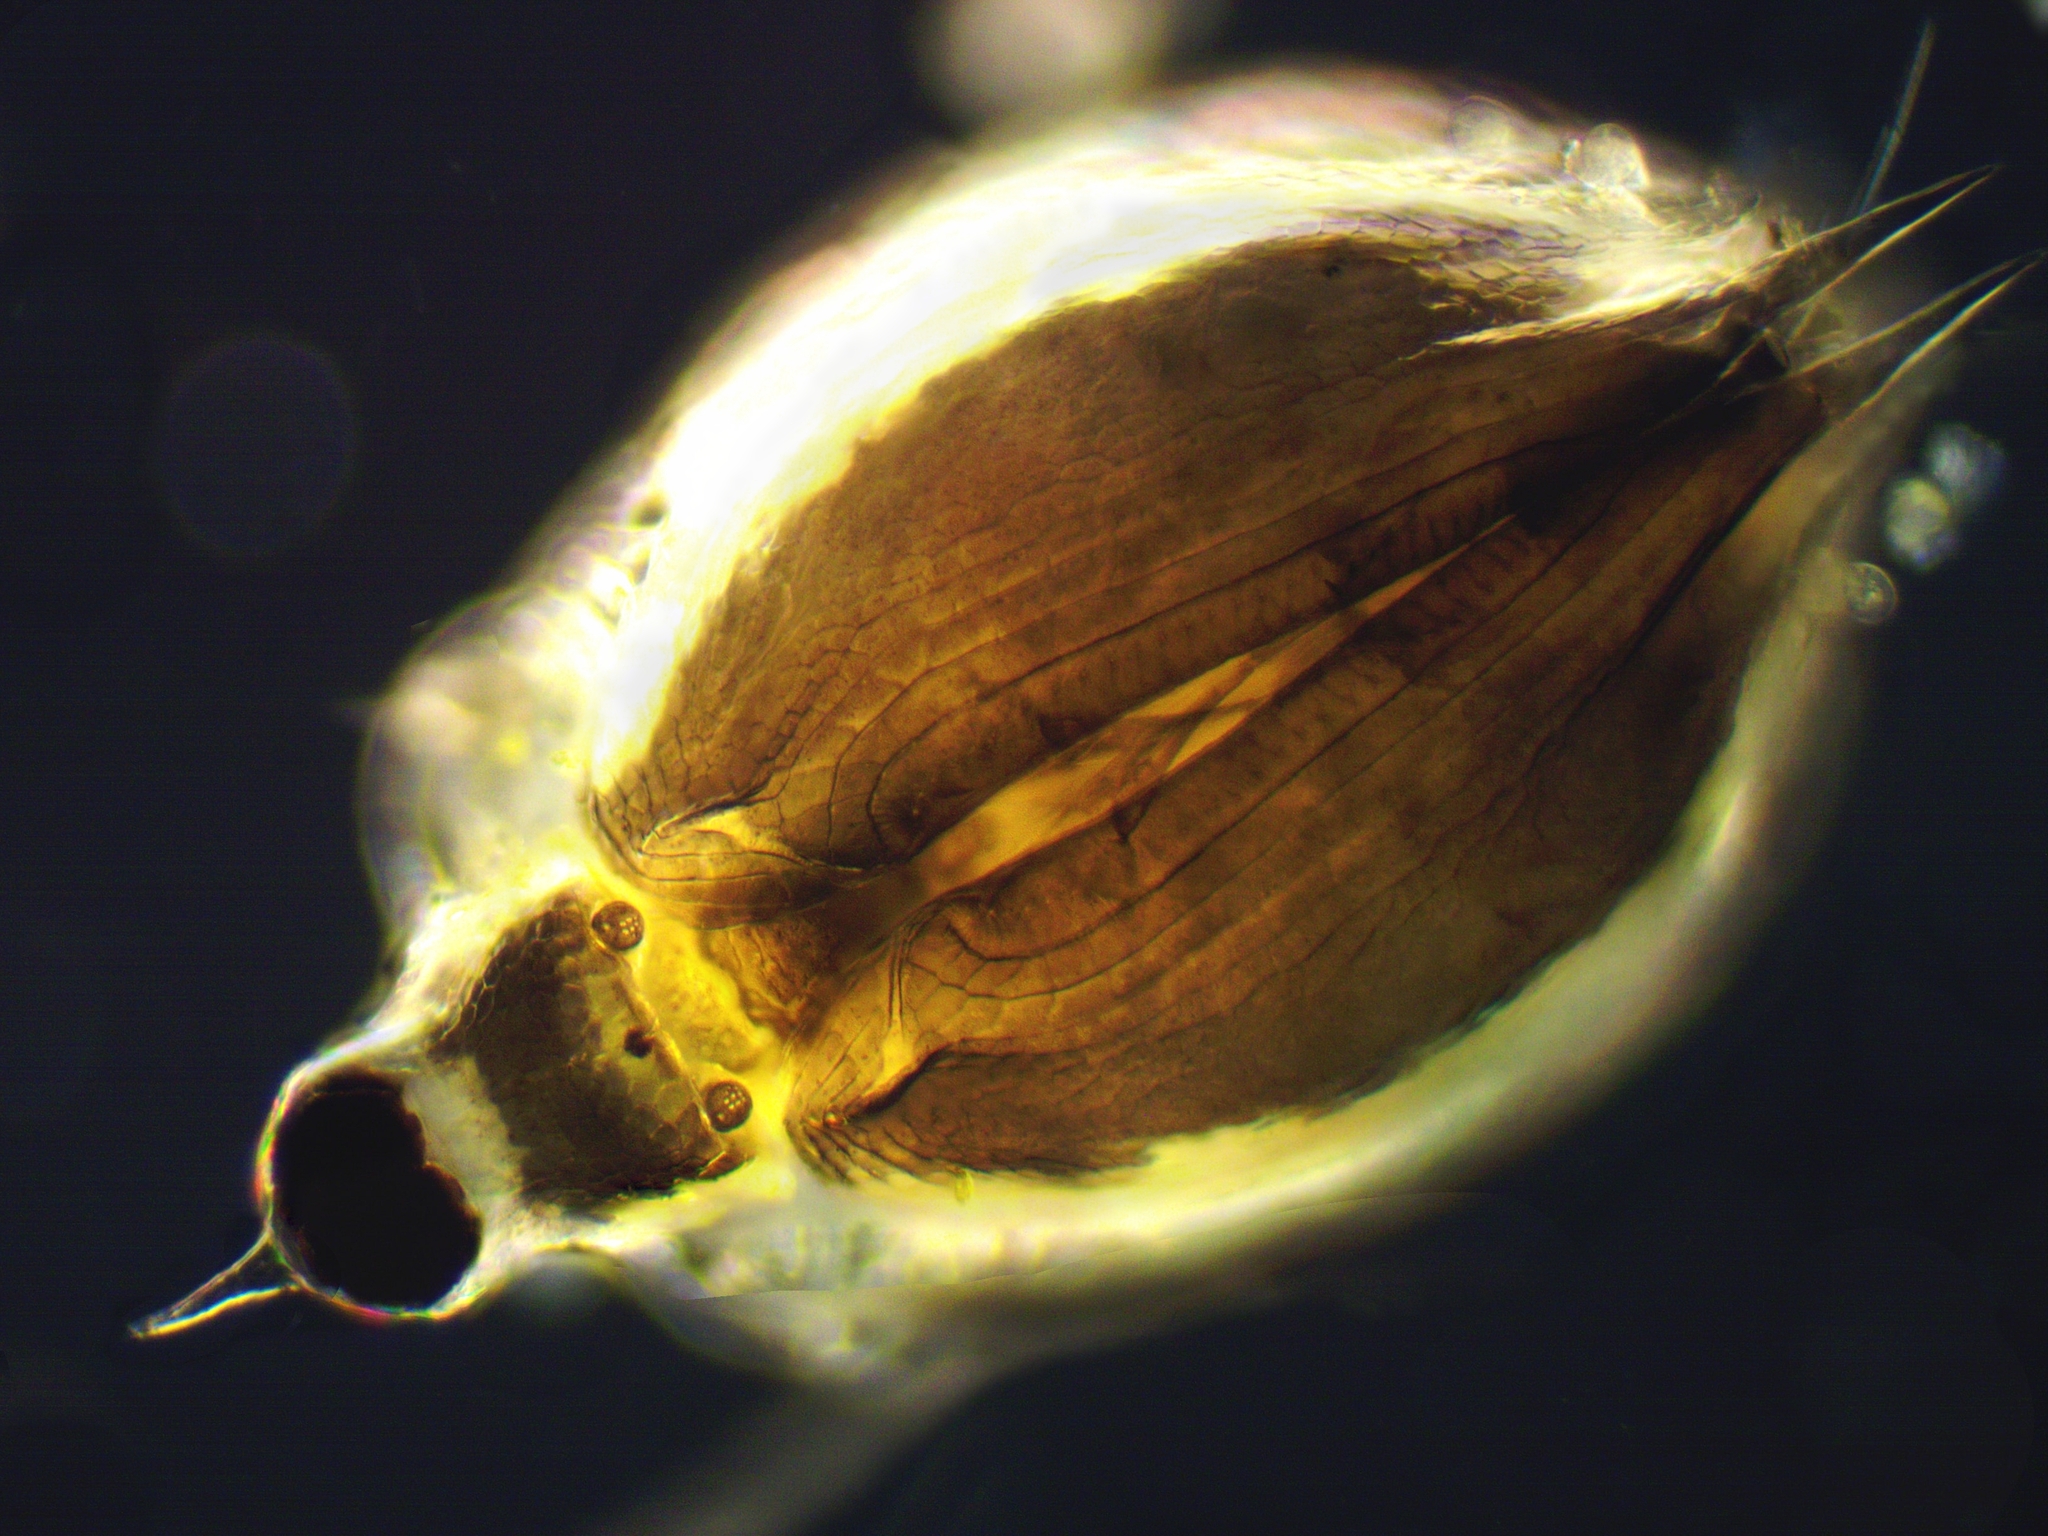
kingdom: Animalia
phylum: Arthropoda
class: Branchiopoda
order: Diplostraca
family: Daphniidae
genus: Scapholeberis
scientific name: Scapholeberis mucronata
